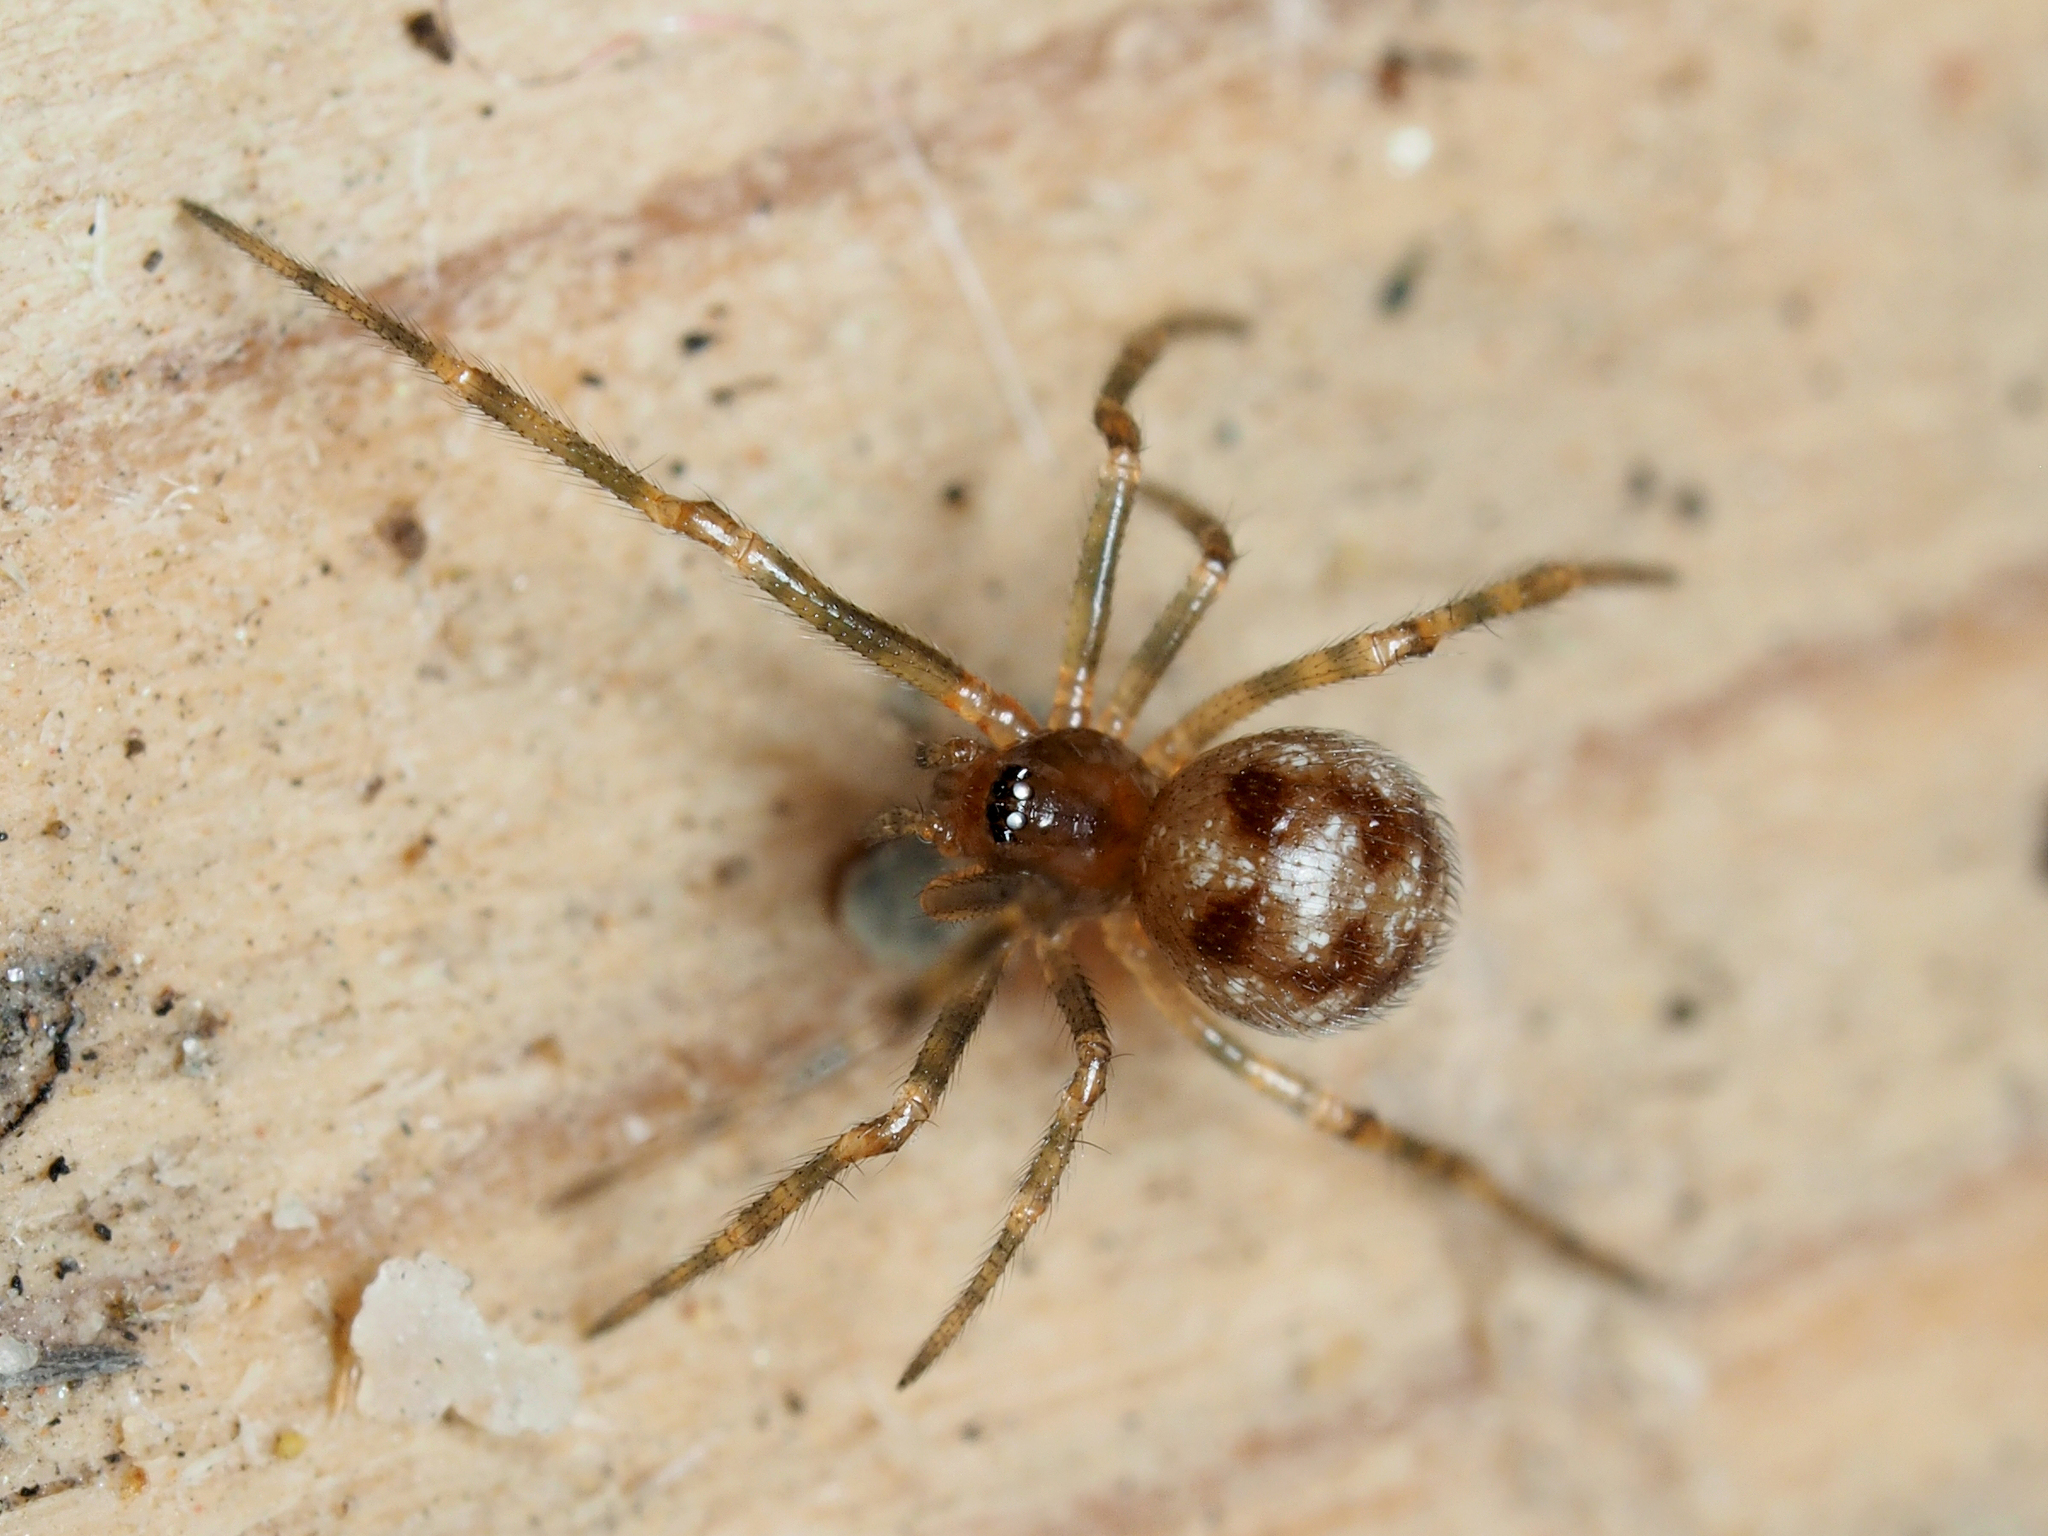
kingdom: Animalia
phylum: Arthropoda
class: Arachnida
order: Araneae
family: Theridiidae
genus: Steatoda
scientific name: Steatoda triangulosa
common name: Triangulate bud spider
